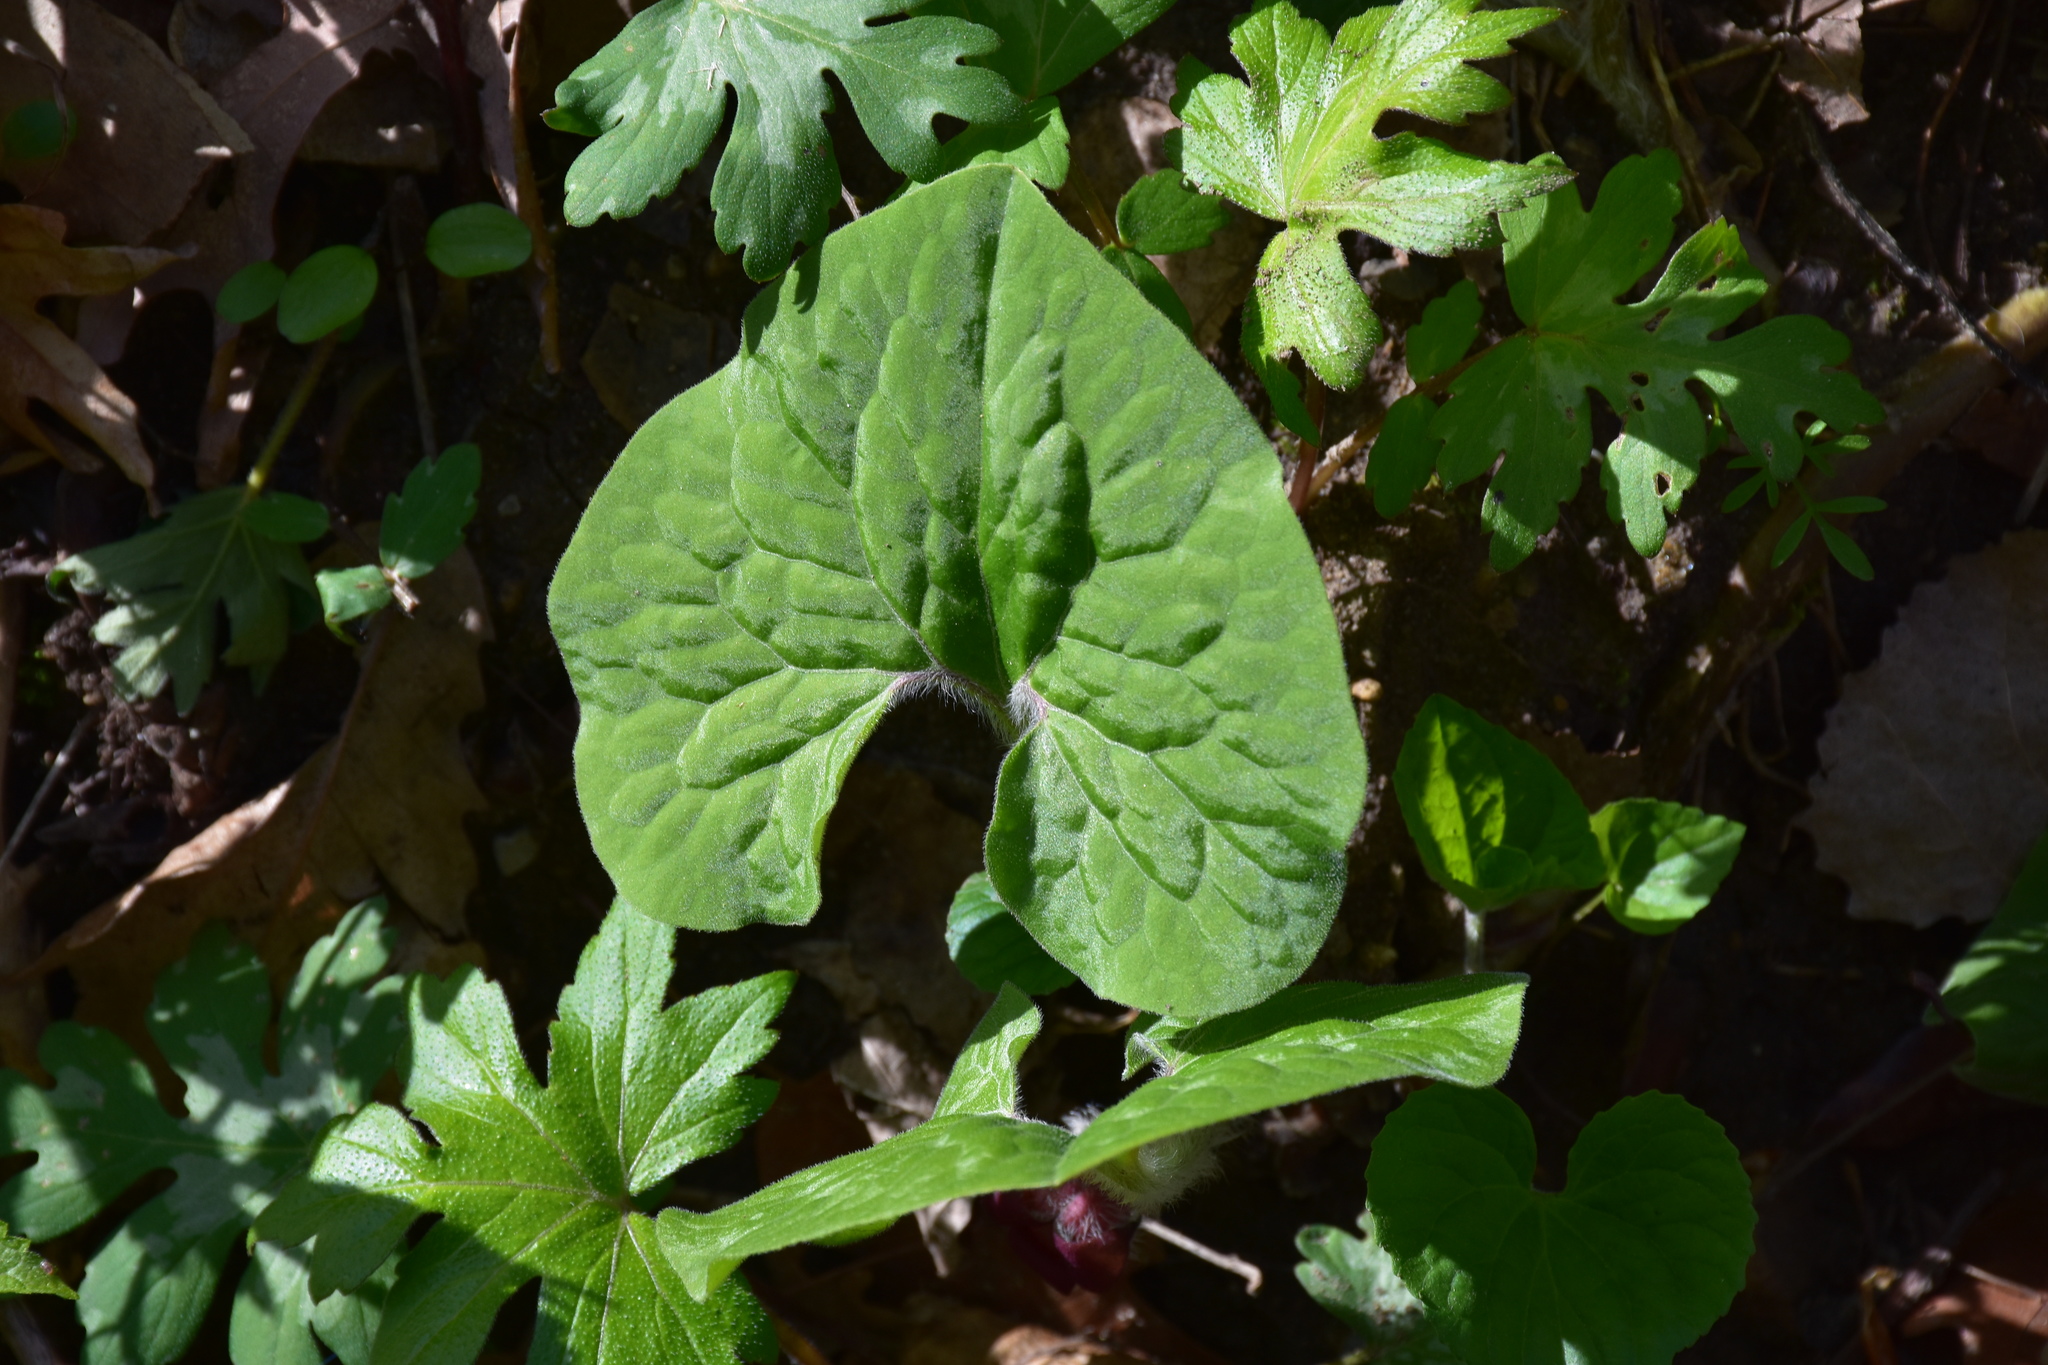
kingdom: Plantae
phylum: Tracheophyta
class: Magnoliopsida
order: Piperales
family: Aristolochiaceae
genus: Asarum
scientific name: Asarum canadense
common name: Wild ginger
